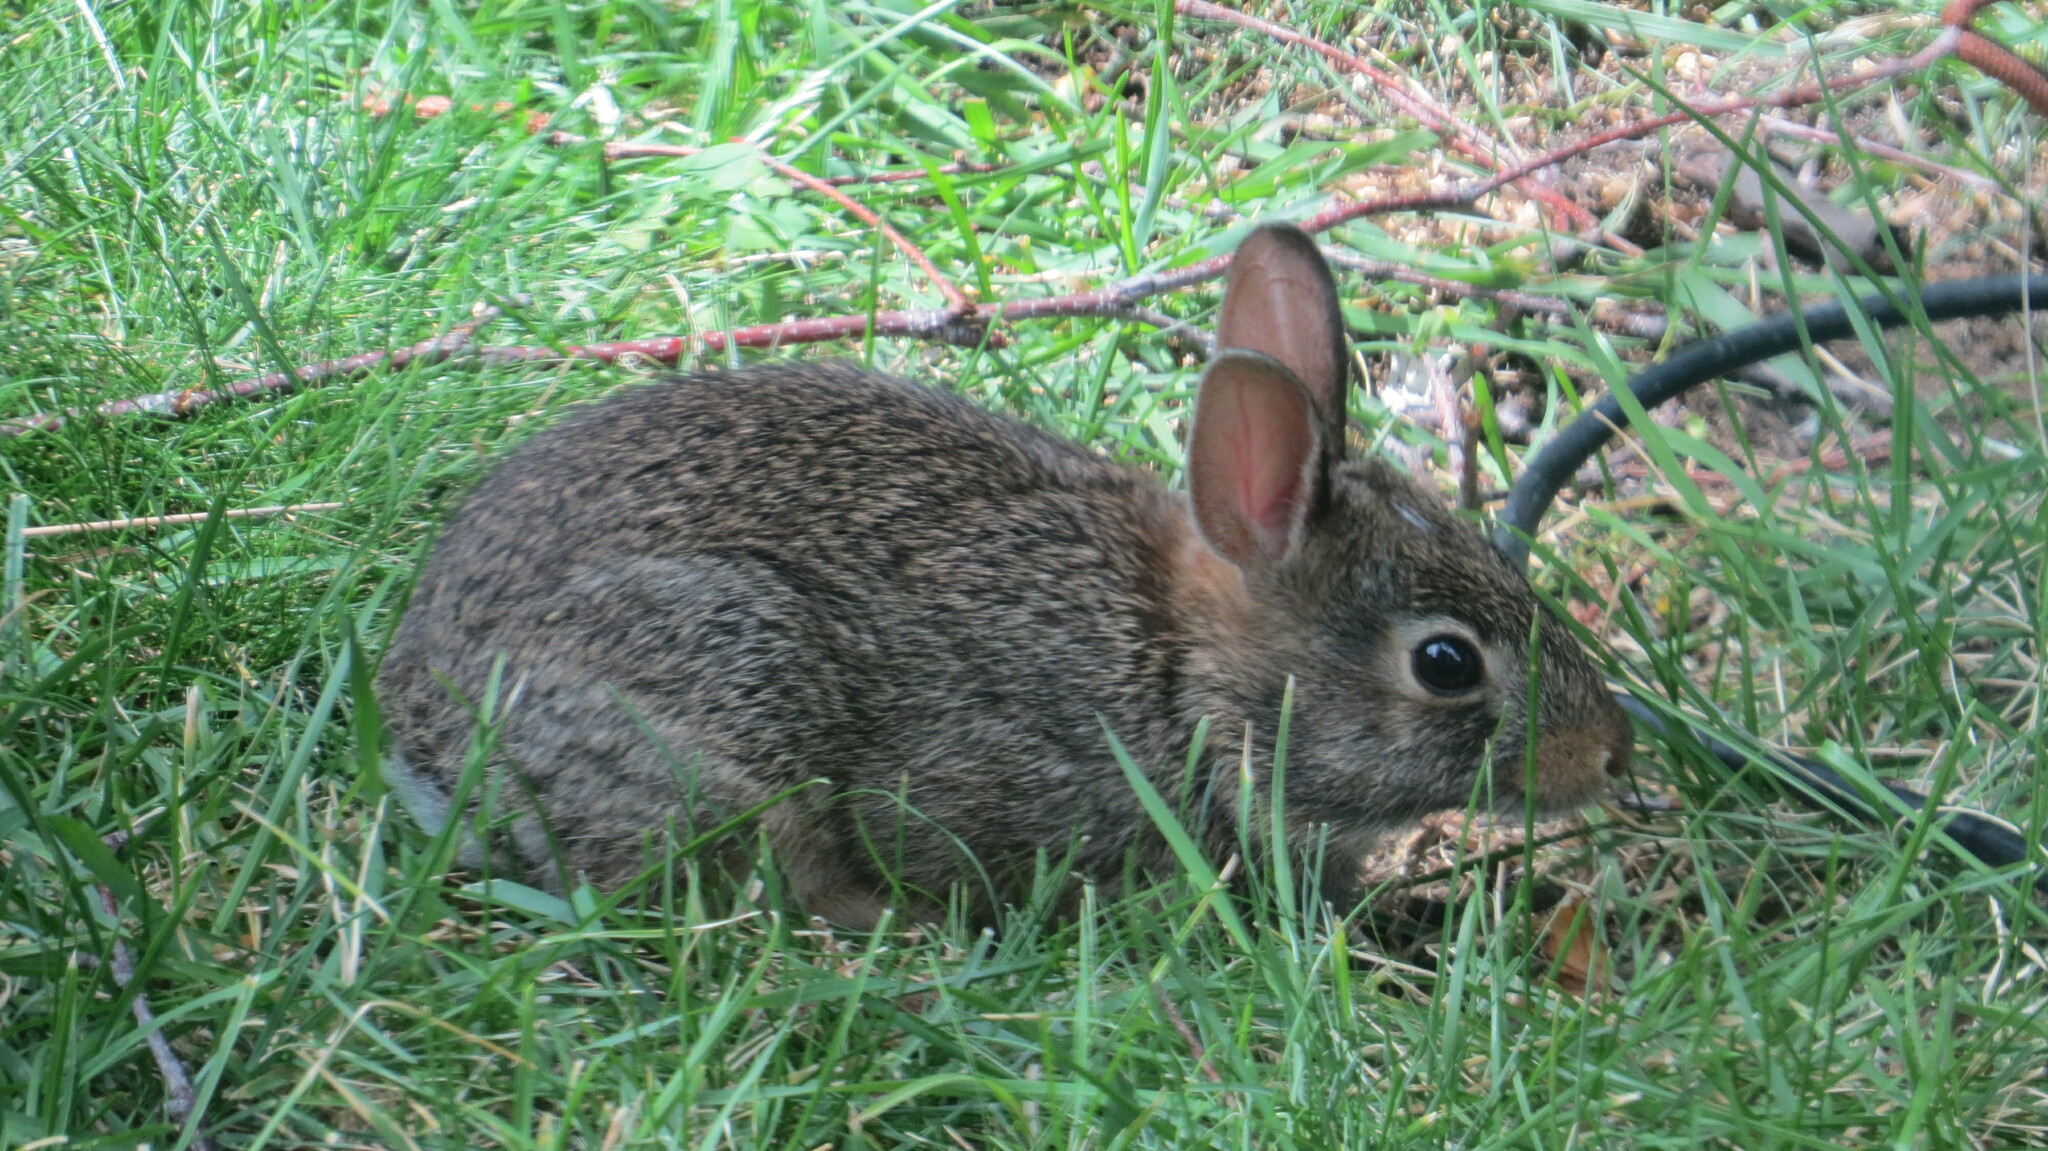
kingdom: Animalia
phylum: Chordata
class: Mammalia
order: Lagomorpha
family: Leporidae
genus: Sylvilagus
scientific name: Sylvilagus floridanus
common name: Eastern cottontail
